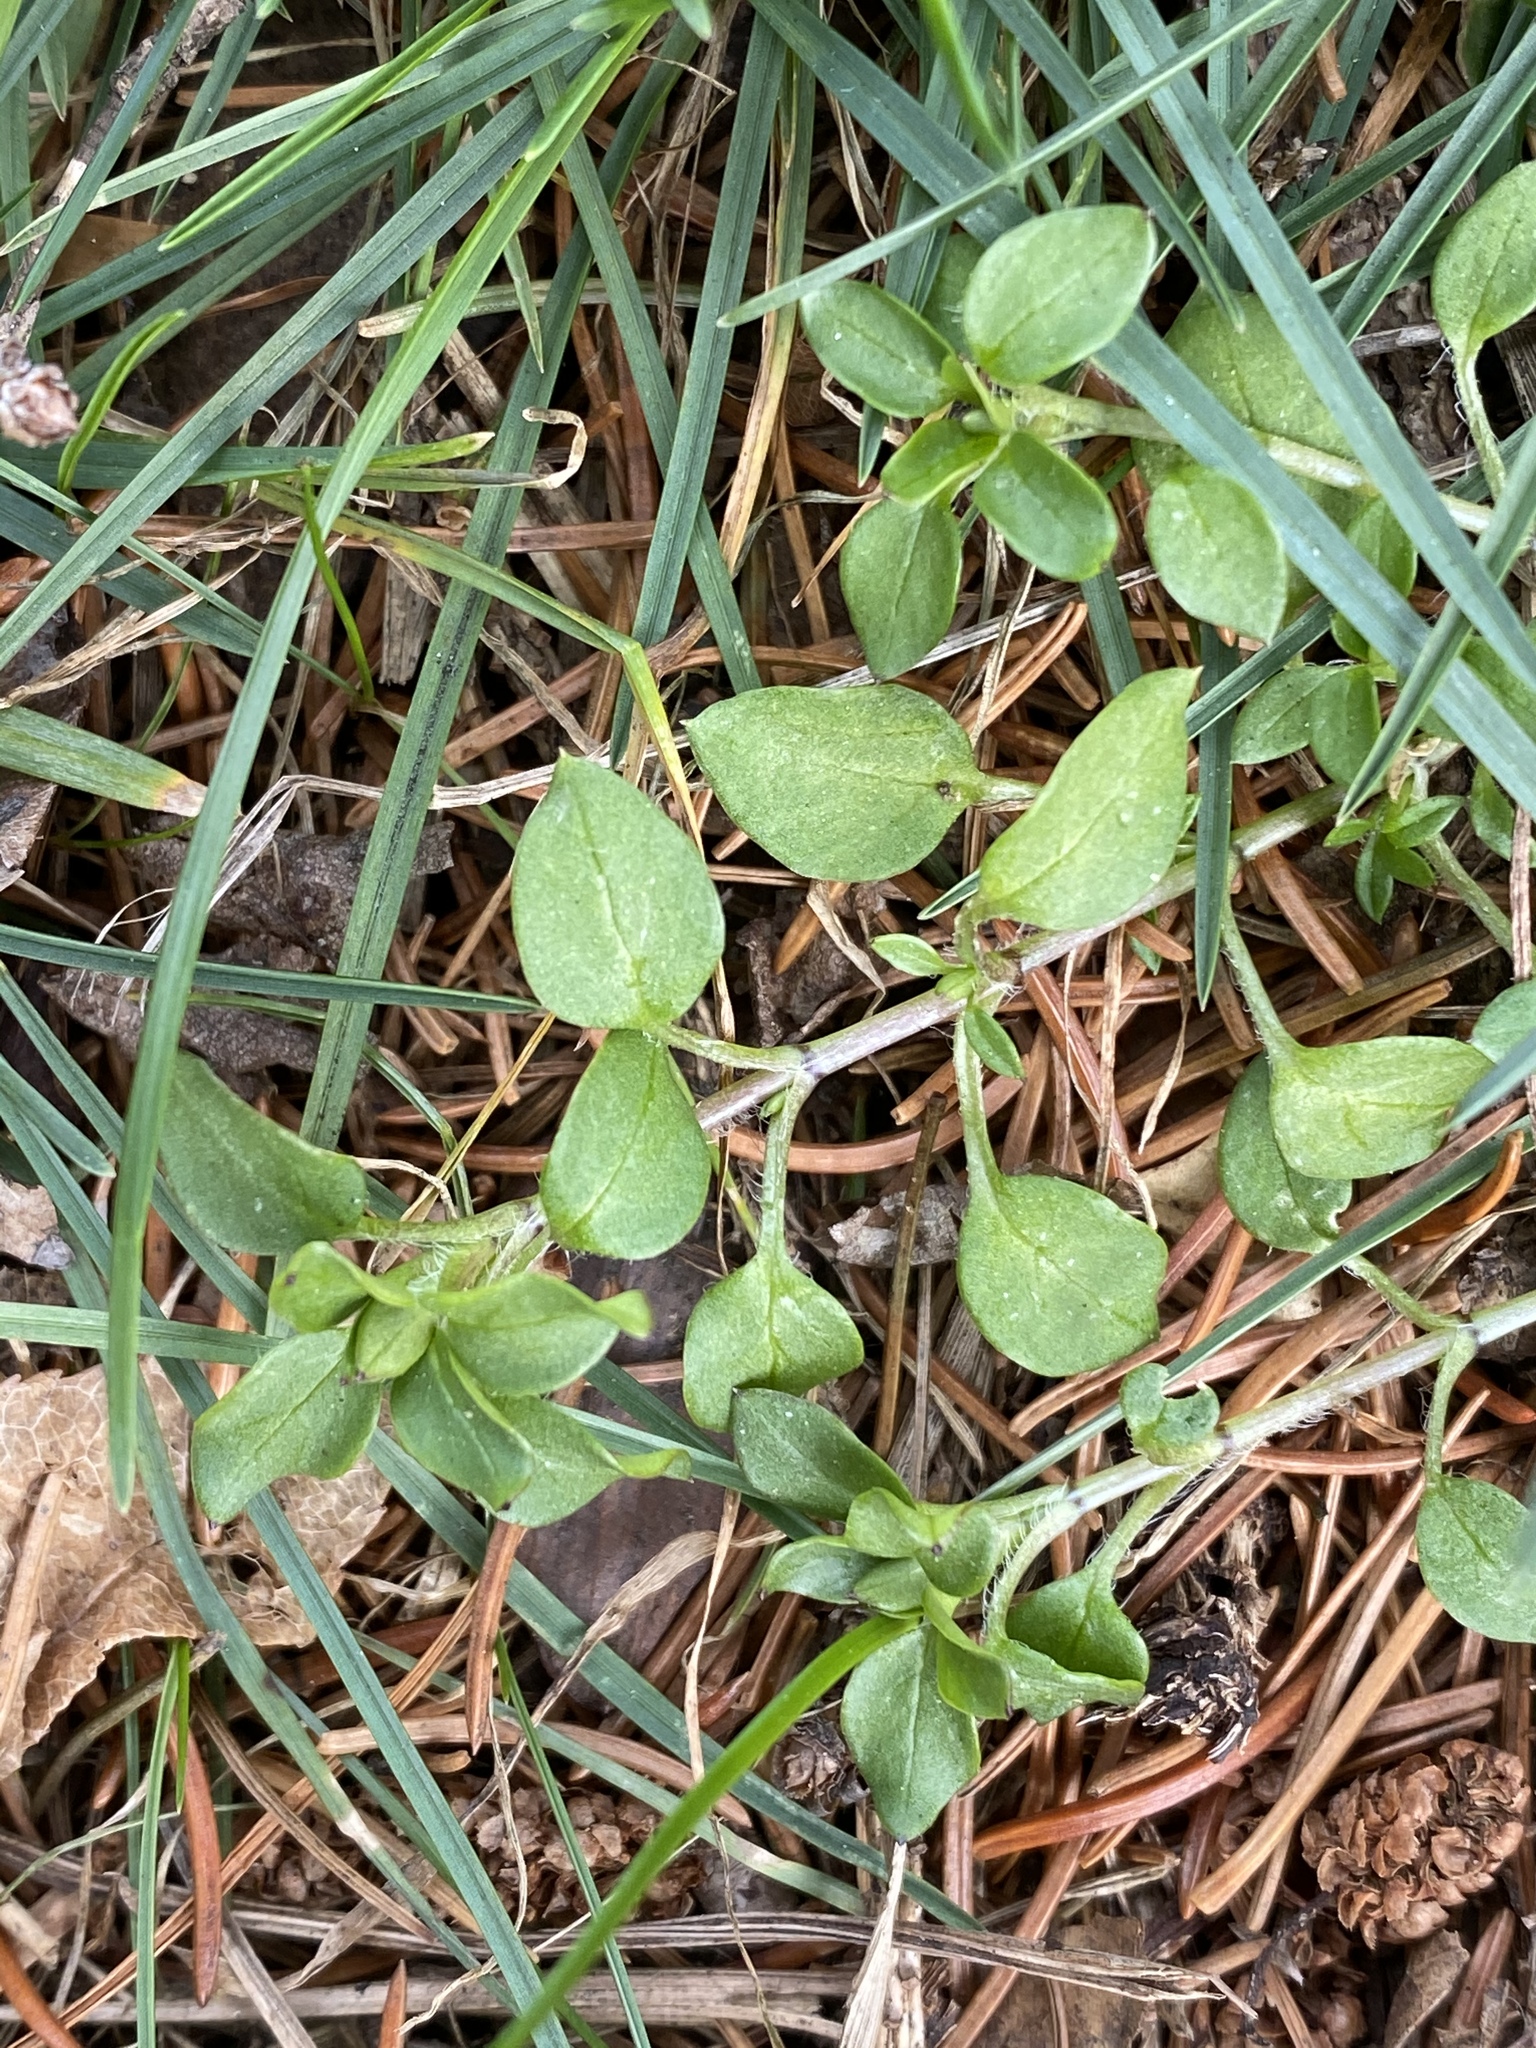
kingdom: Plantae
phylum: Tracheophyta
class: Magnoliopsida
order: Caryophyllales
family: Caryophyllaceae
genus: Stellaria
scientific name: Stellaria media
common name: Common chickweed
